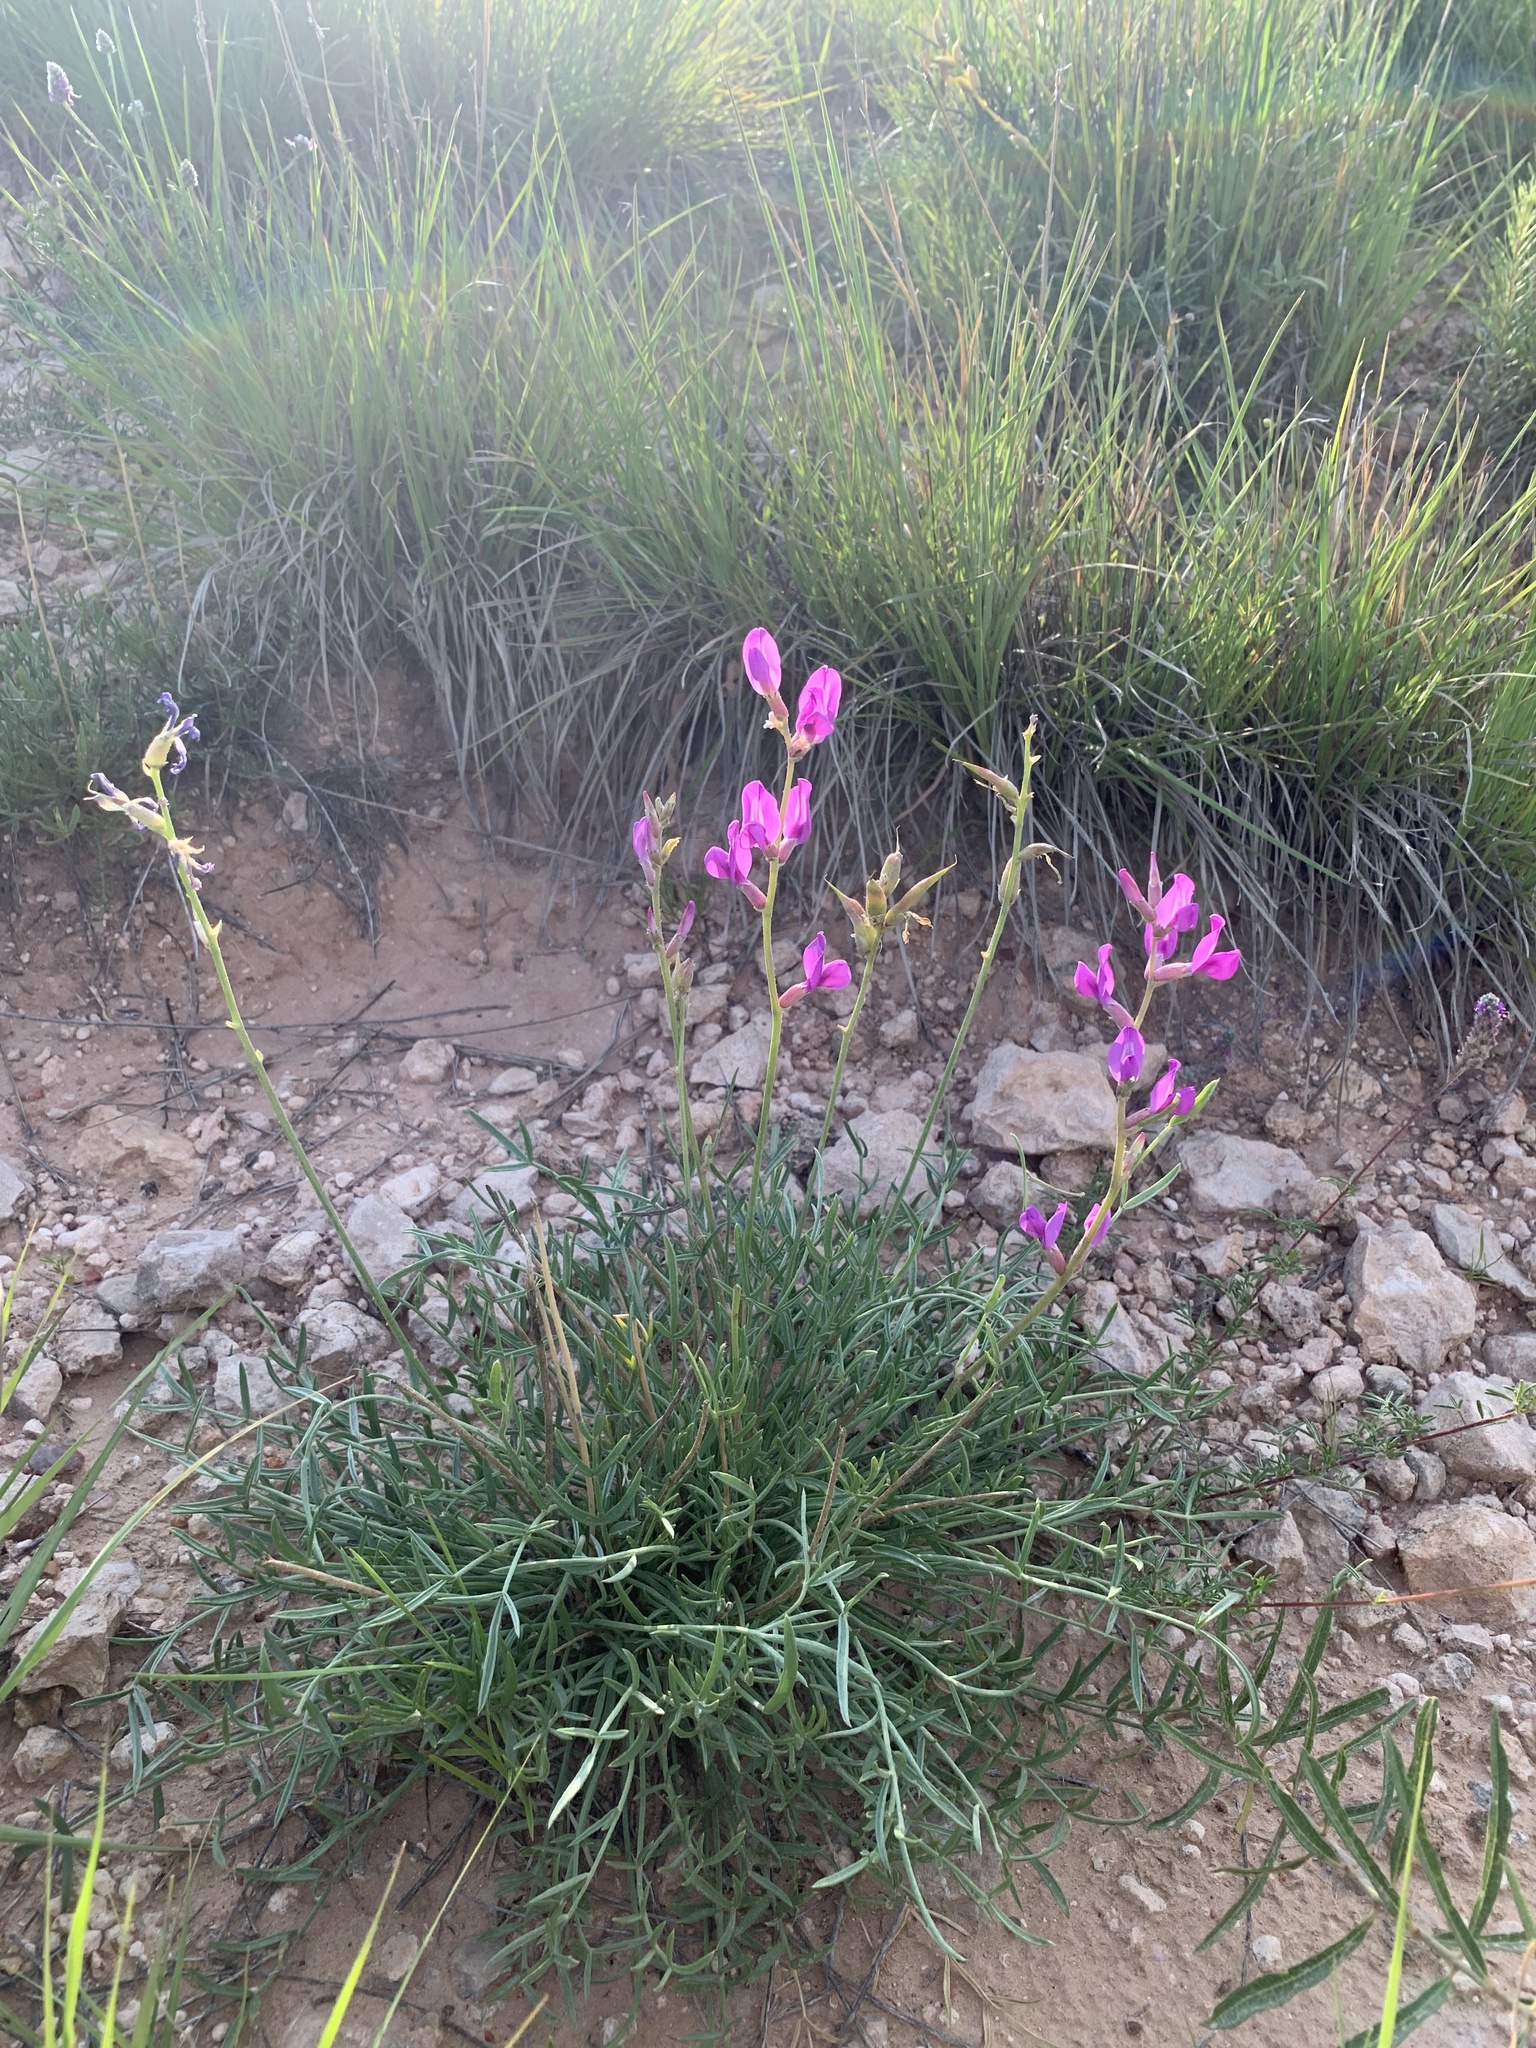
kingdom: Plantae
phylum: Tracheophyta
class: Magnoliopsida
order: Fabales
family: Fabaceae
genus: Oxytropis
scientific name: Oxytropis lambertii
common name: Purple locoweed
